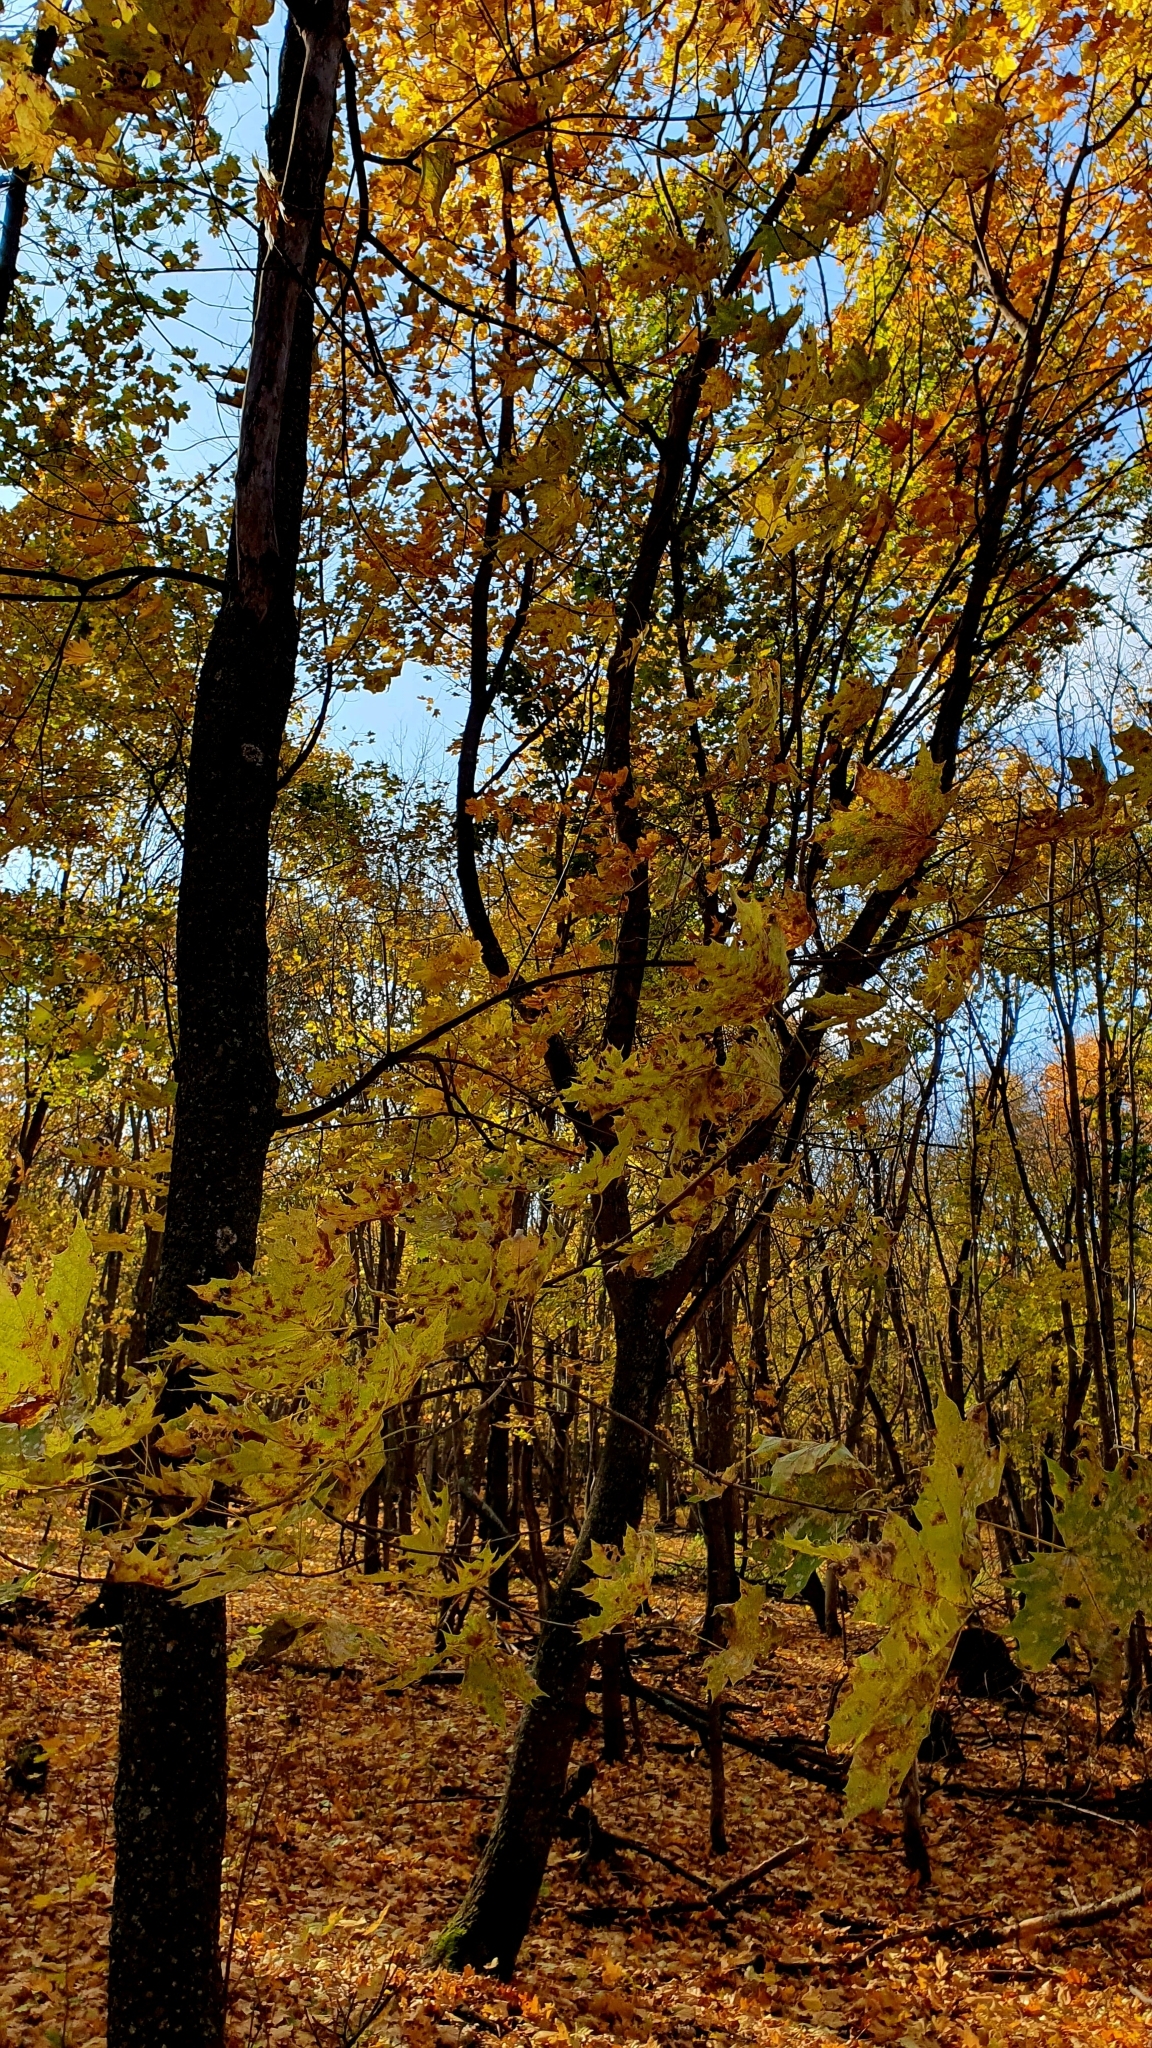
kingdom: Plantae
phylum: Tracheophyta
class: Magnoliopsida
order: Sapindales
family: Sapindaceae
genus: Acer
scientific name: Acer platanoides
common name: Norway maple
